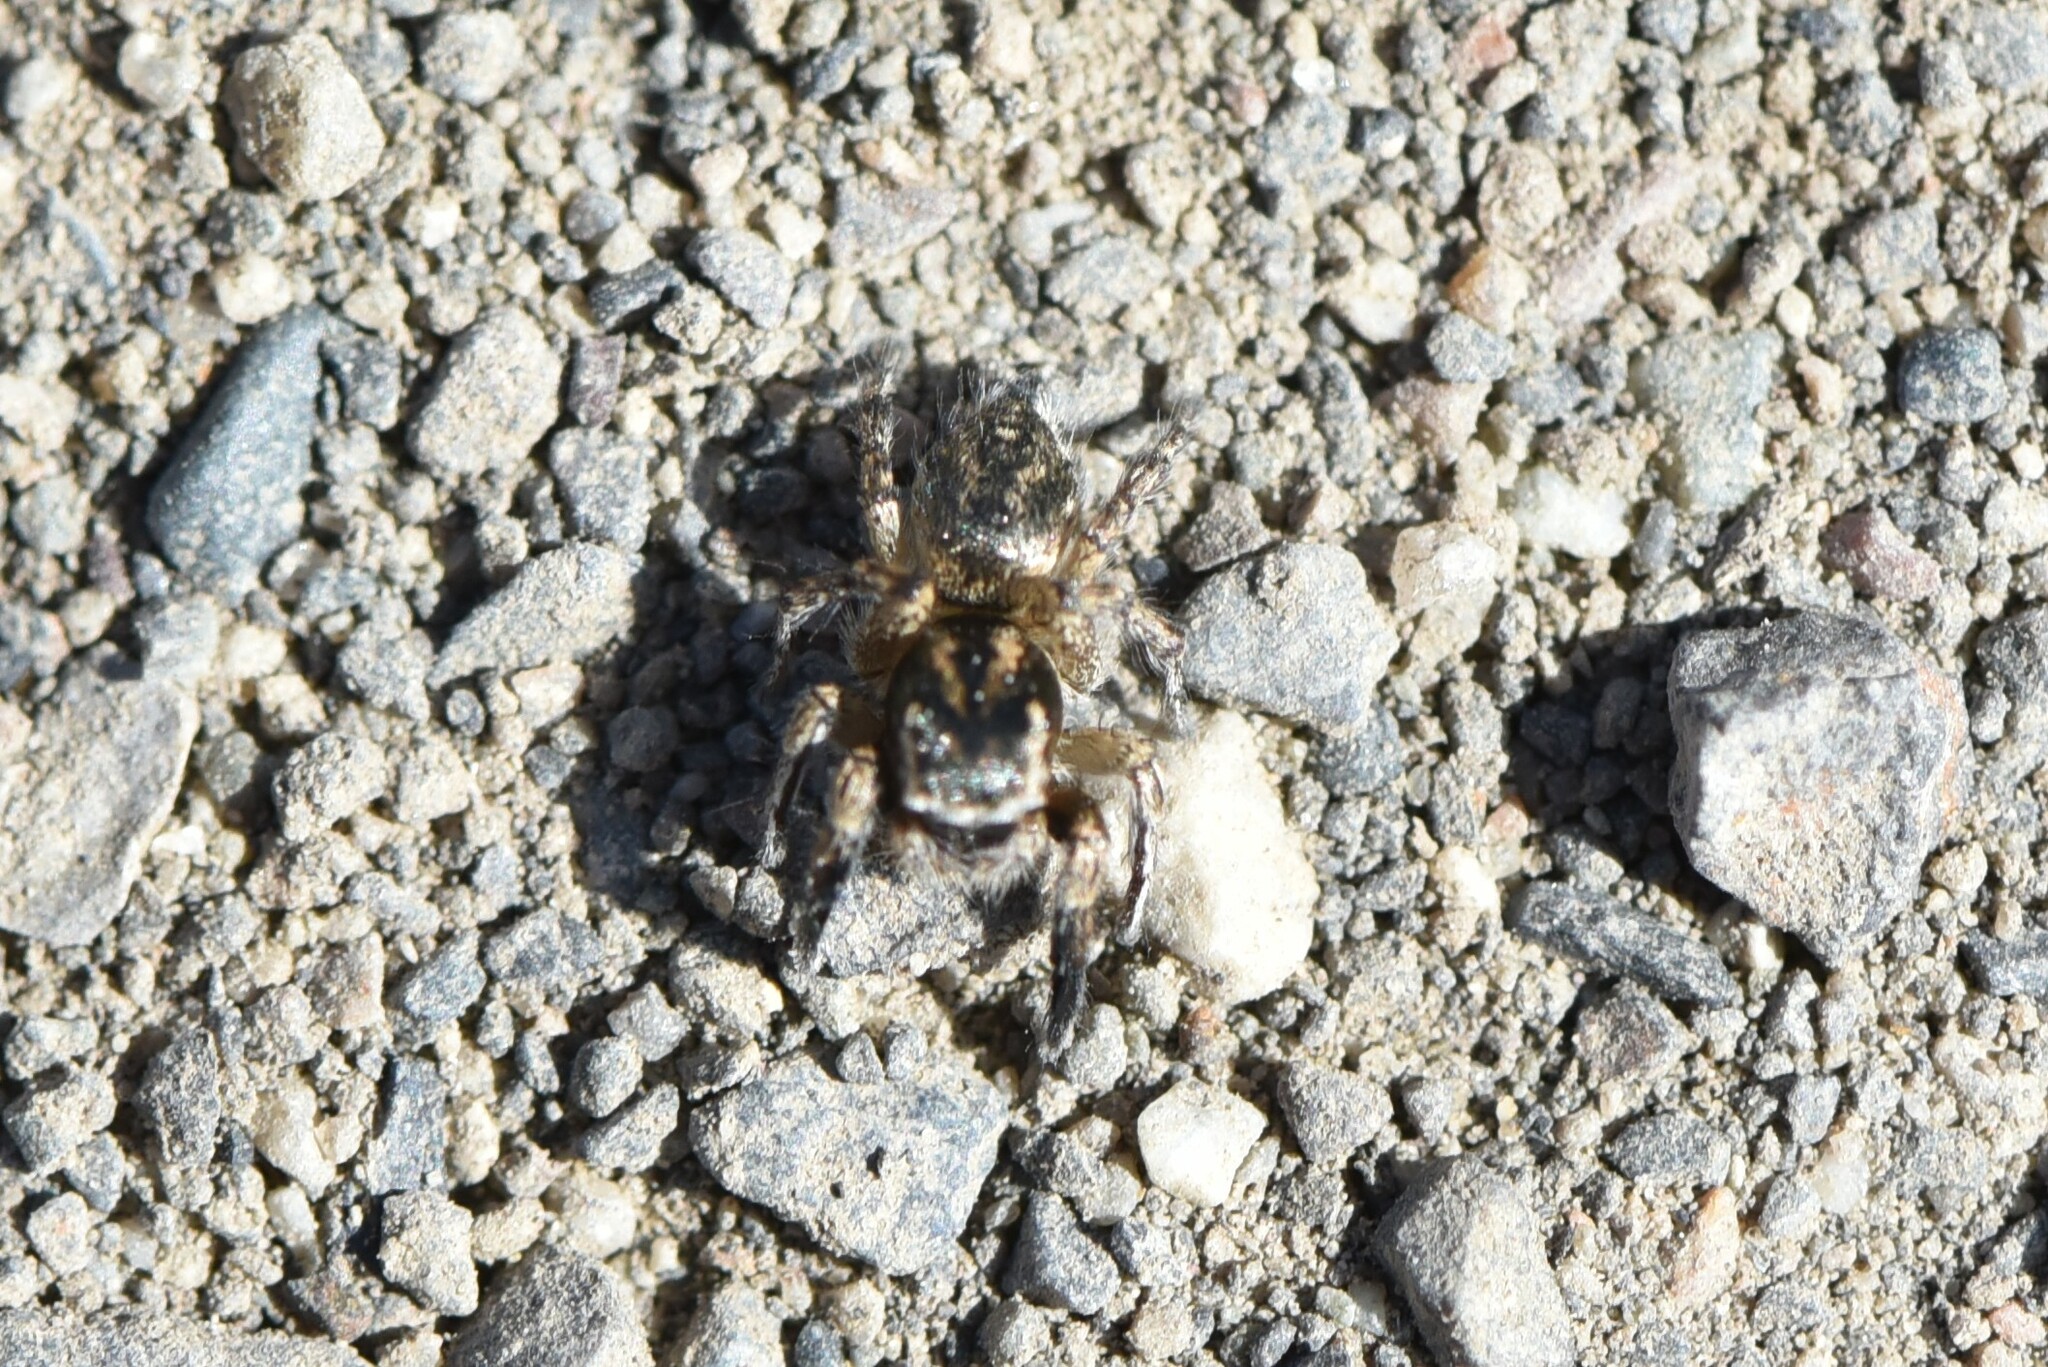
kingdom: Animalia
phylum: Arthropoda
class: Arachnida
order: Araneae
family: Salticidae
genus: Habronattus
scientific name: Habronattus hirsutus
